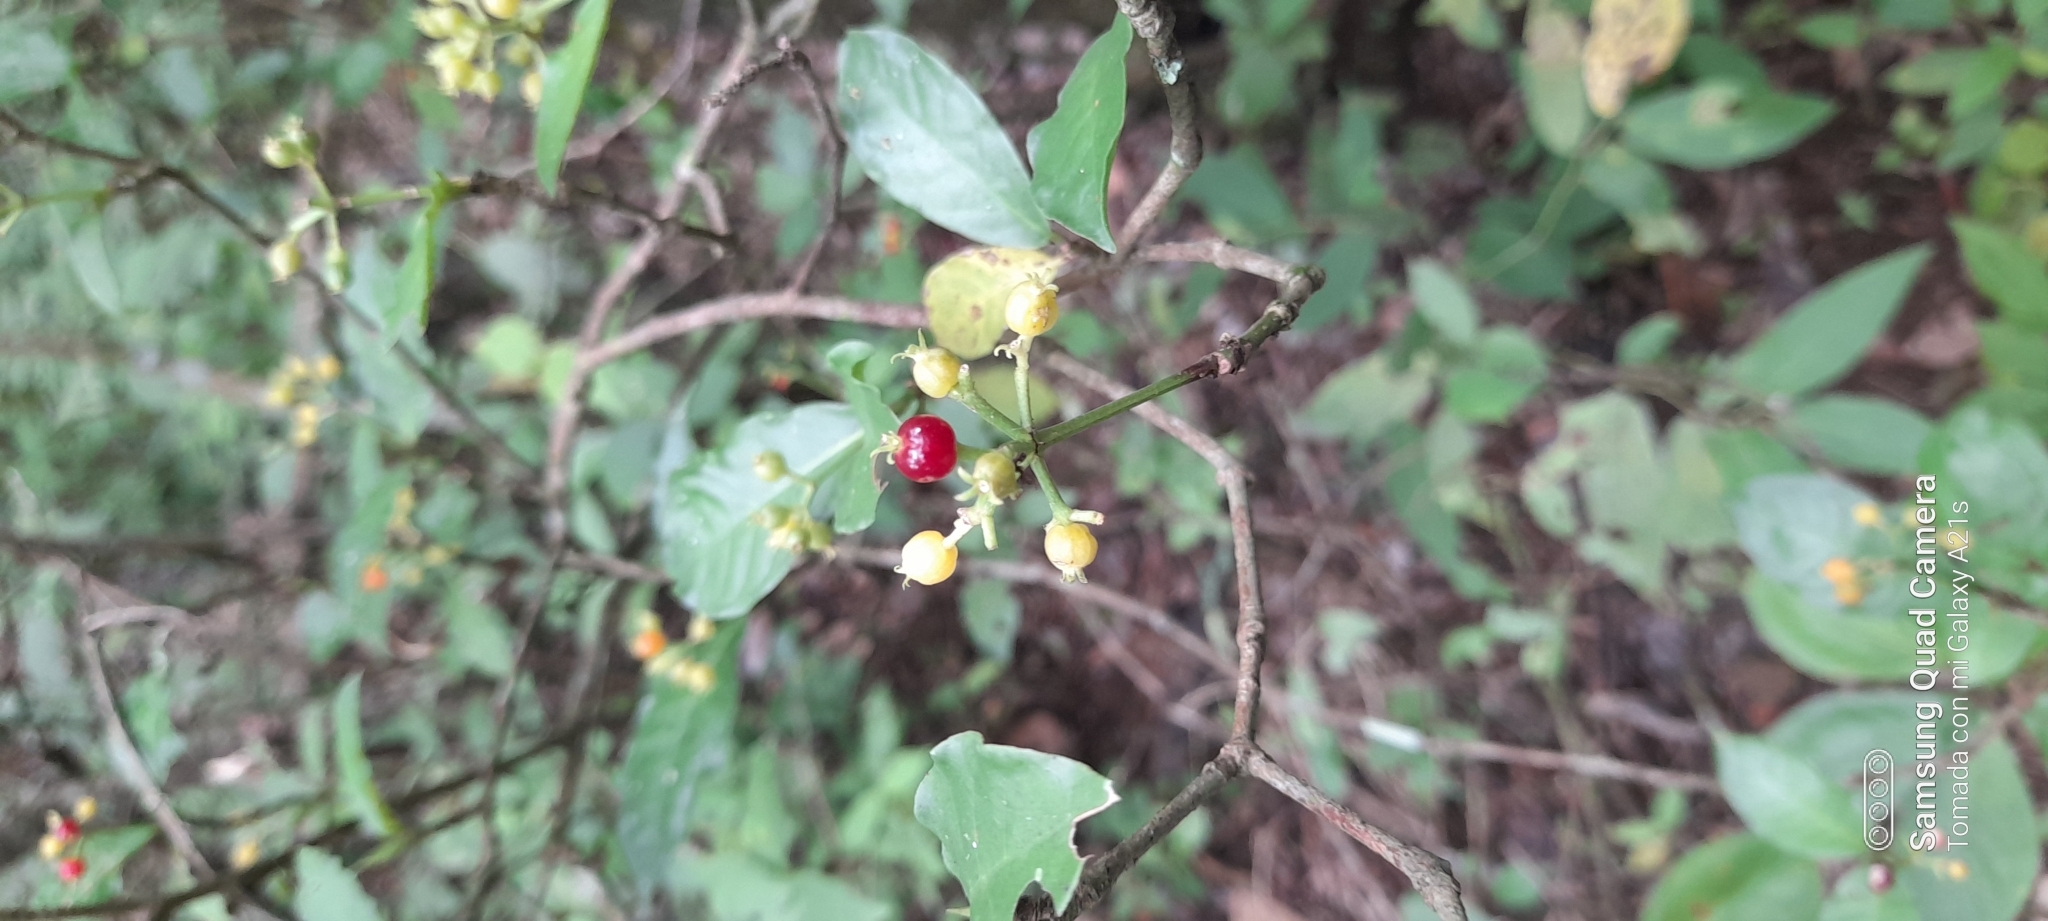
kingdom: Plantae
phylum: Tracheophyta
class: Magnoliopsida
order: Caryophyllales
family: Phytolaccaceae
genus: Rivina
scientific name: Rivina humilis
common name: Rougeplant
